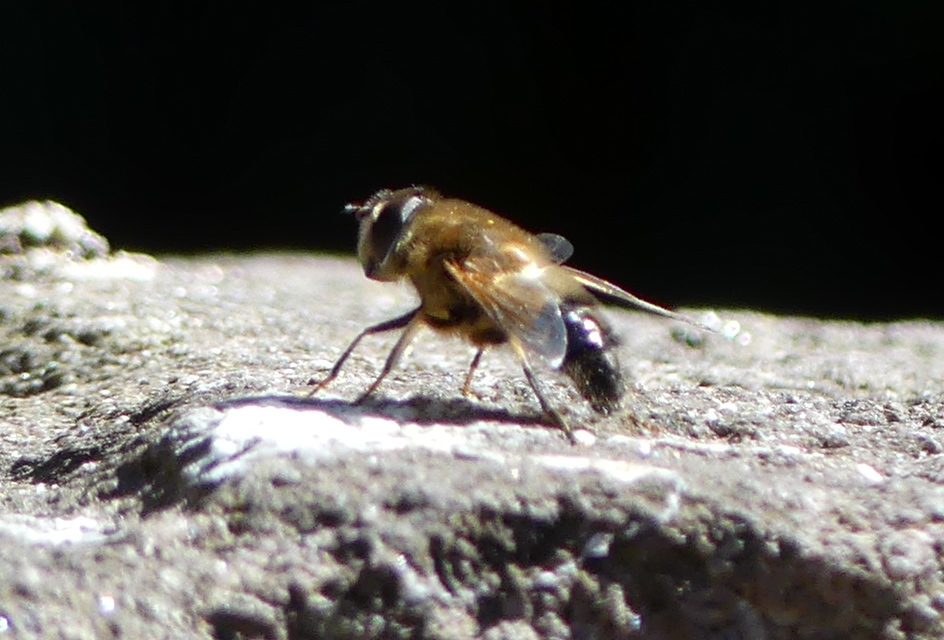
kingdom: Animalia
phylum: Arthropoda
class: Insecta
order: Diptera
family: Syrphidae
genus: Eristalis
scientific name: Eristalis pertinax
